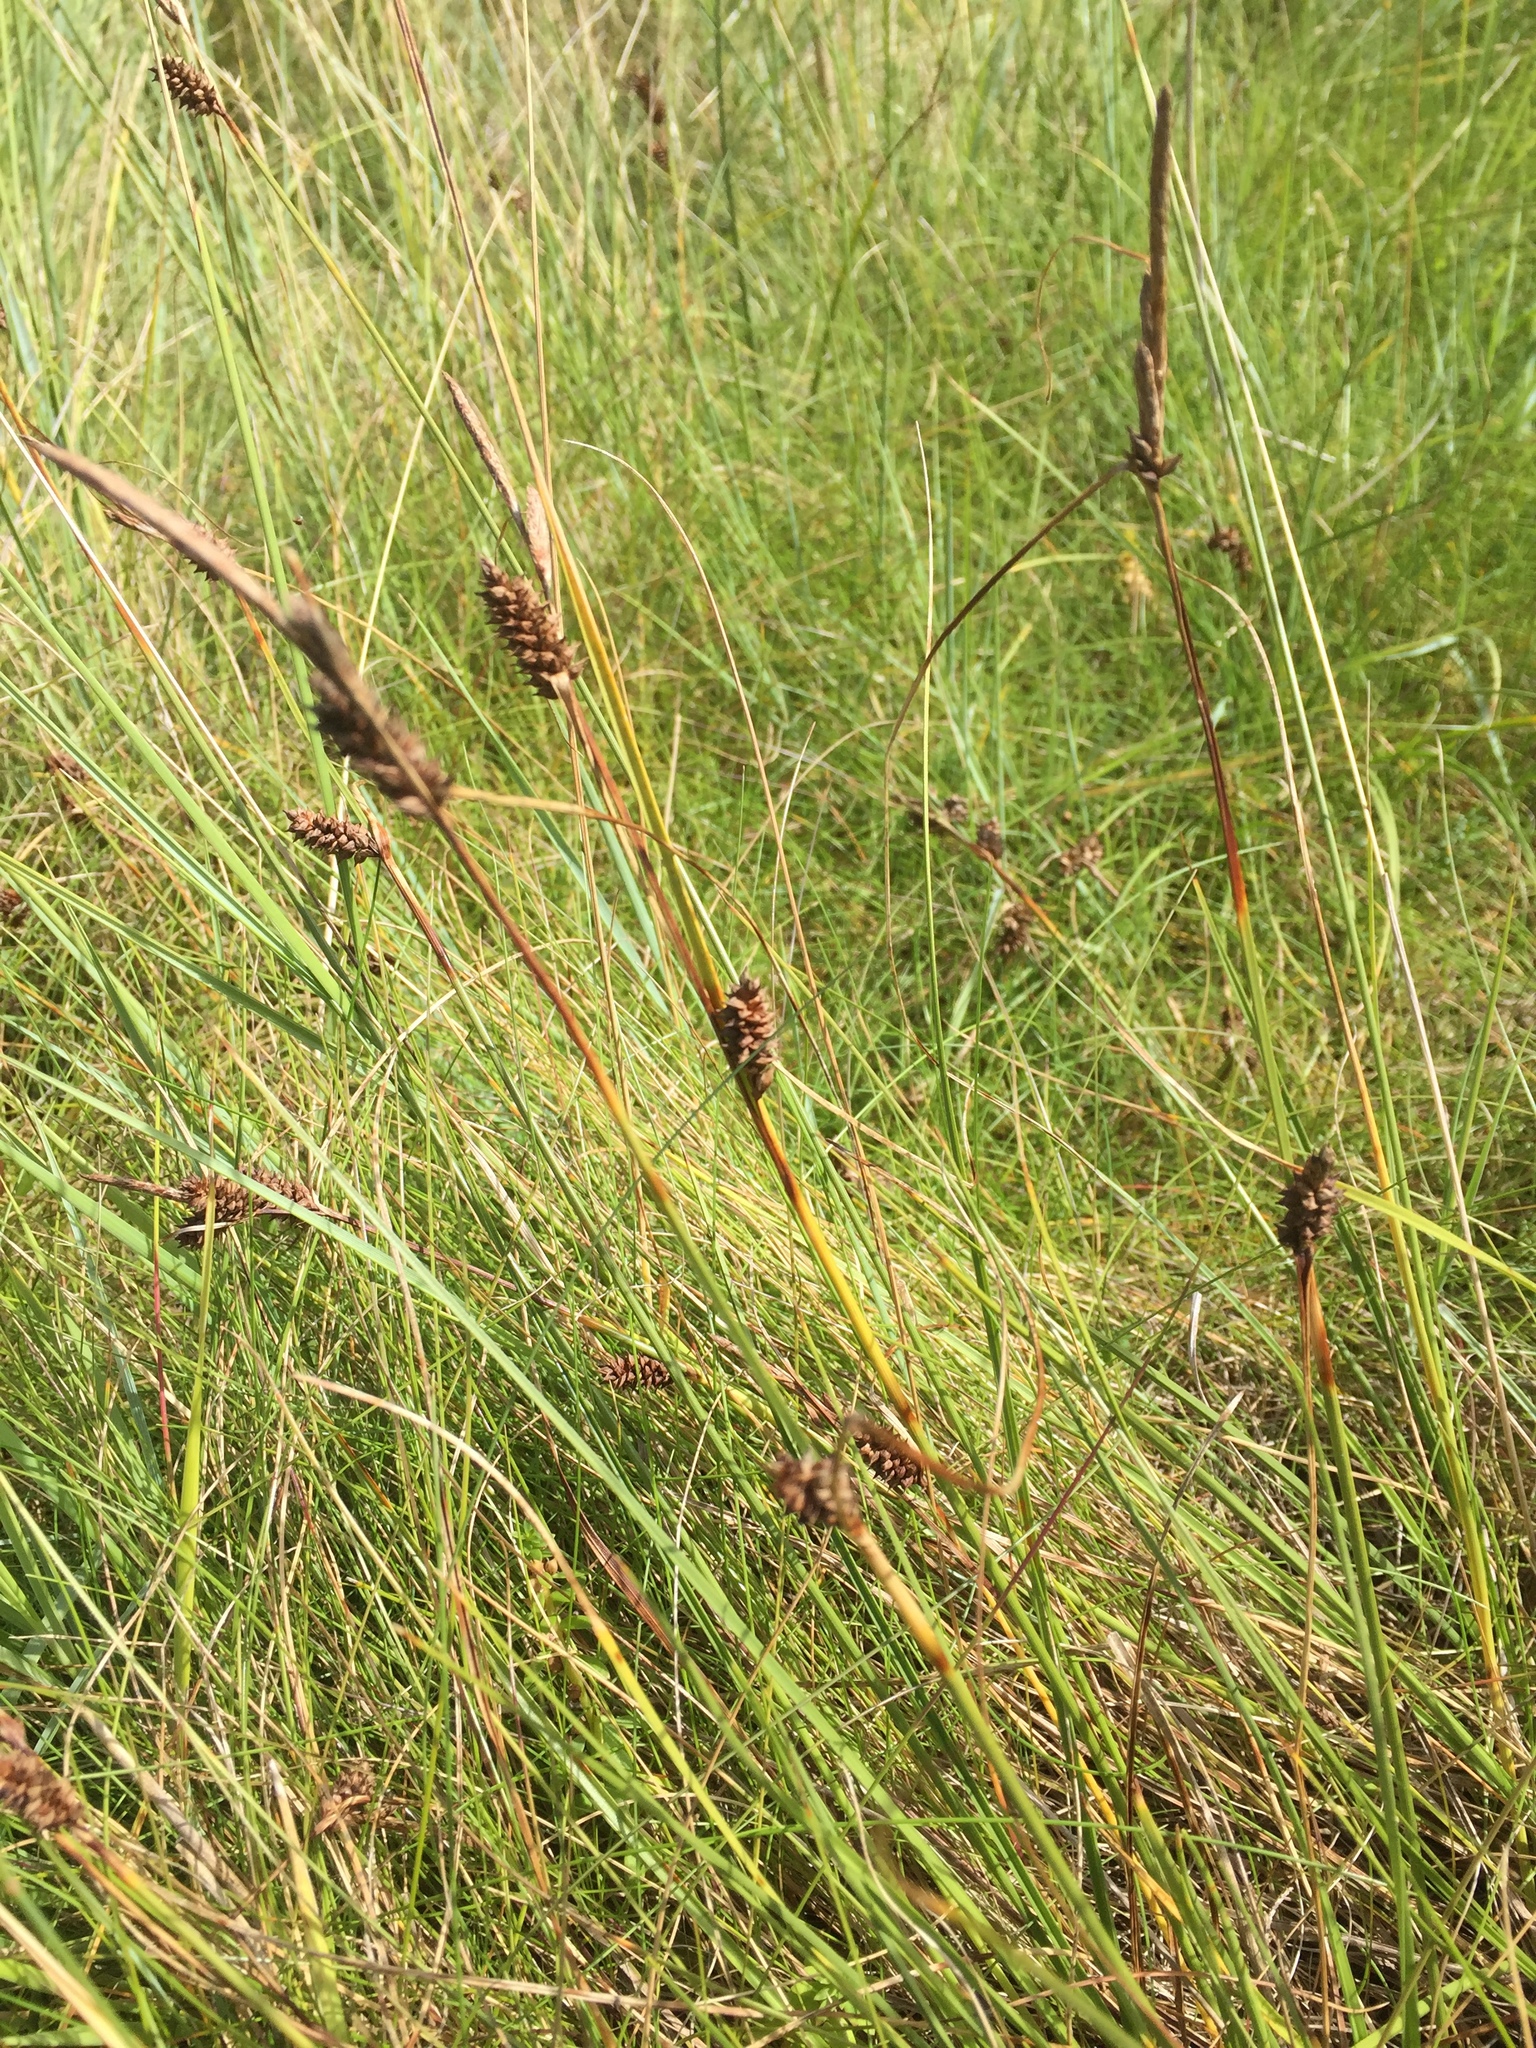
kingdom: Plantae
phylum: Tracheophyta
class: Liliopsida
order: Poales
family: Cyperaceae
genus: Carex
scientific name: Carex extensa
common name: Long-bracted sedge
